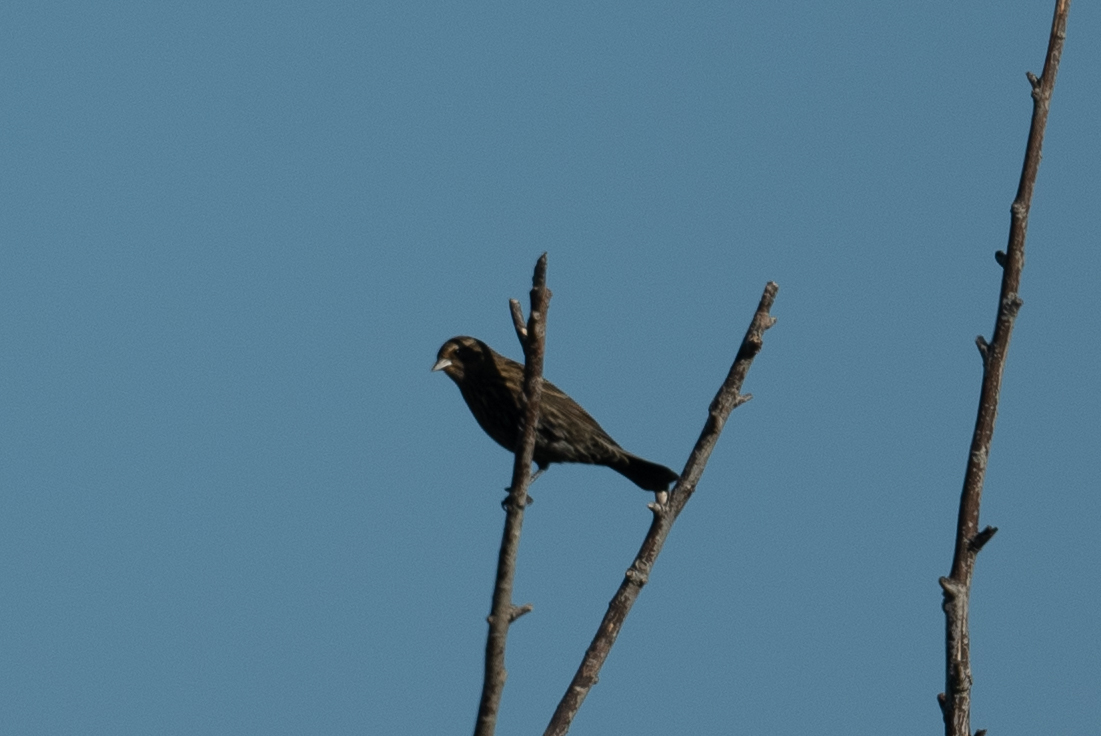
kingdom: Animalia
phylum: Chordata
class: Aves
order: Passeriformes
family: Icteridae
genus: Agelaius
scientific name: Agelaius phoeniceus
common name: Red-winged blackbird
